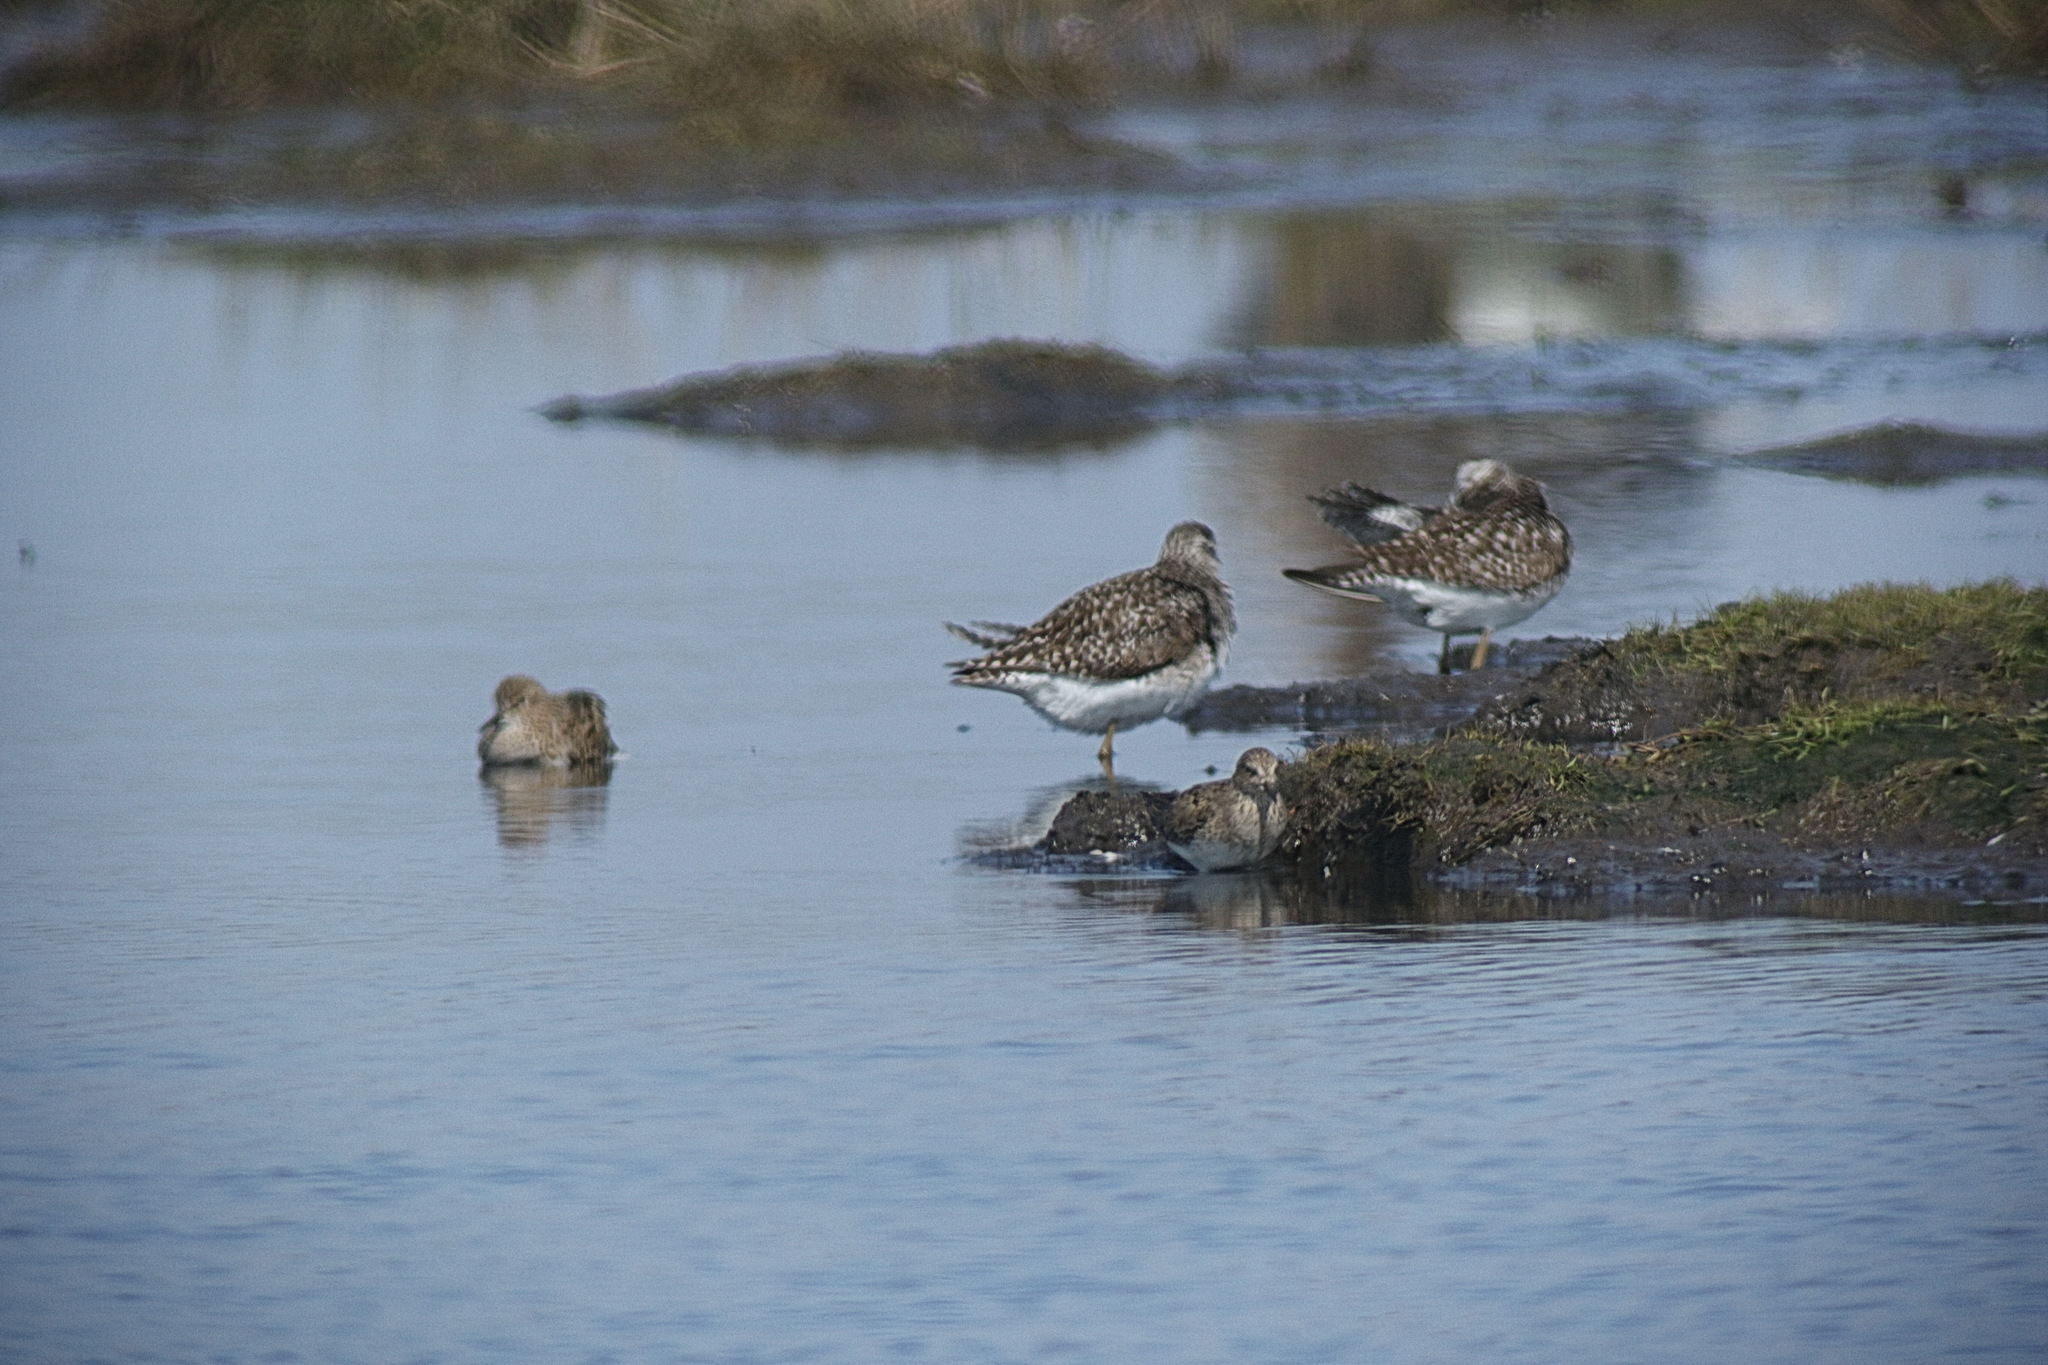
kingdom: Animalia
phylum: Chordata
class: Aves
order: Charadriiformes
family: Scolopacidae
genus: Tringa
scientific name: Tringa glareola
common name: Wood sandpiper
